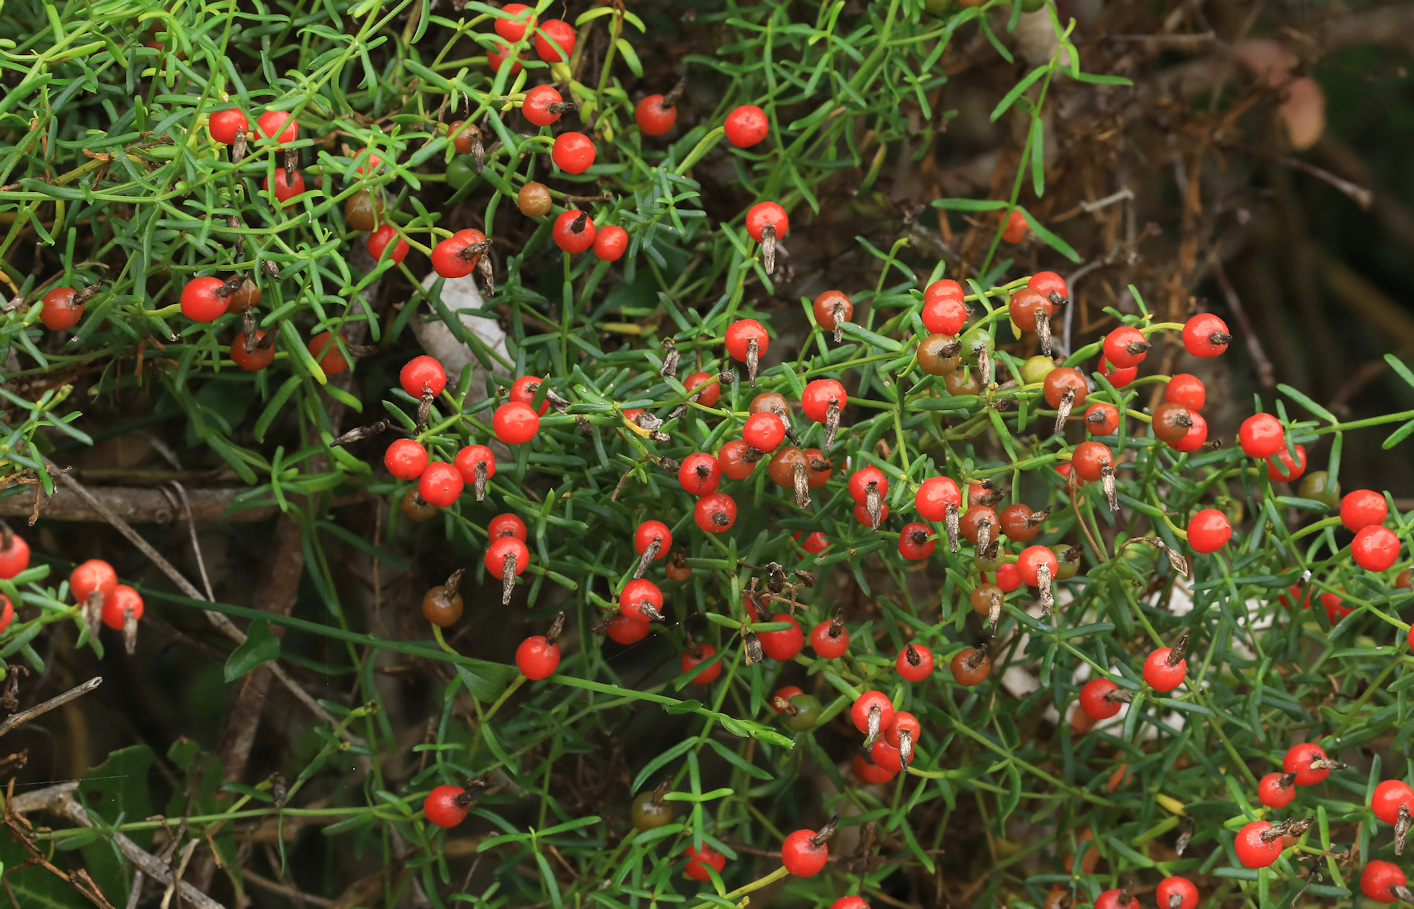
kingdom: Plantae
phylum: Tracheophyta
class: Magnoliopsida
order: Gentianales
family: Gentianaceae
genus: Chironia
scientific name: Chironia baccifera
